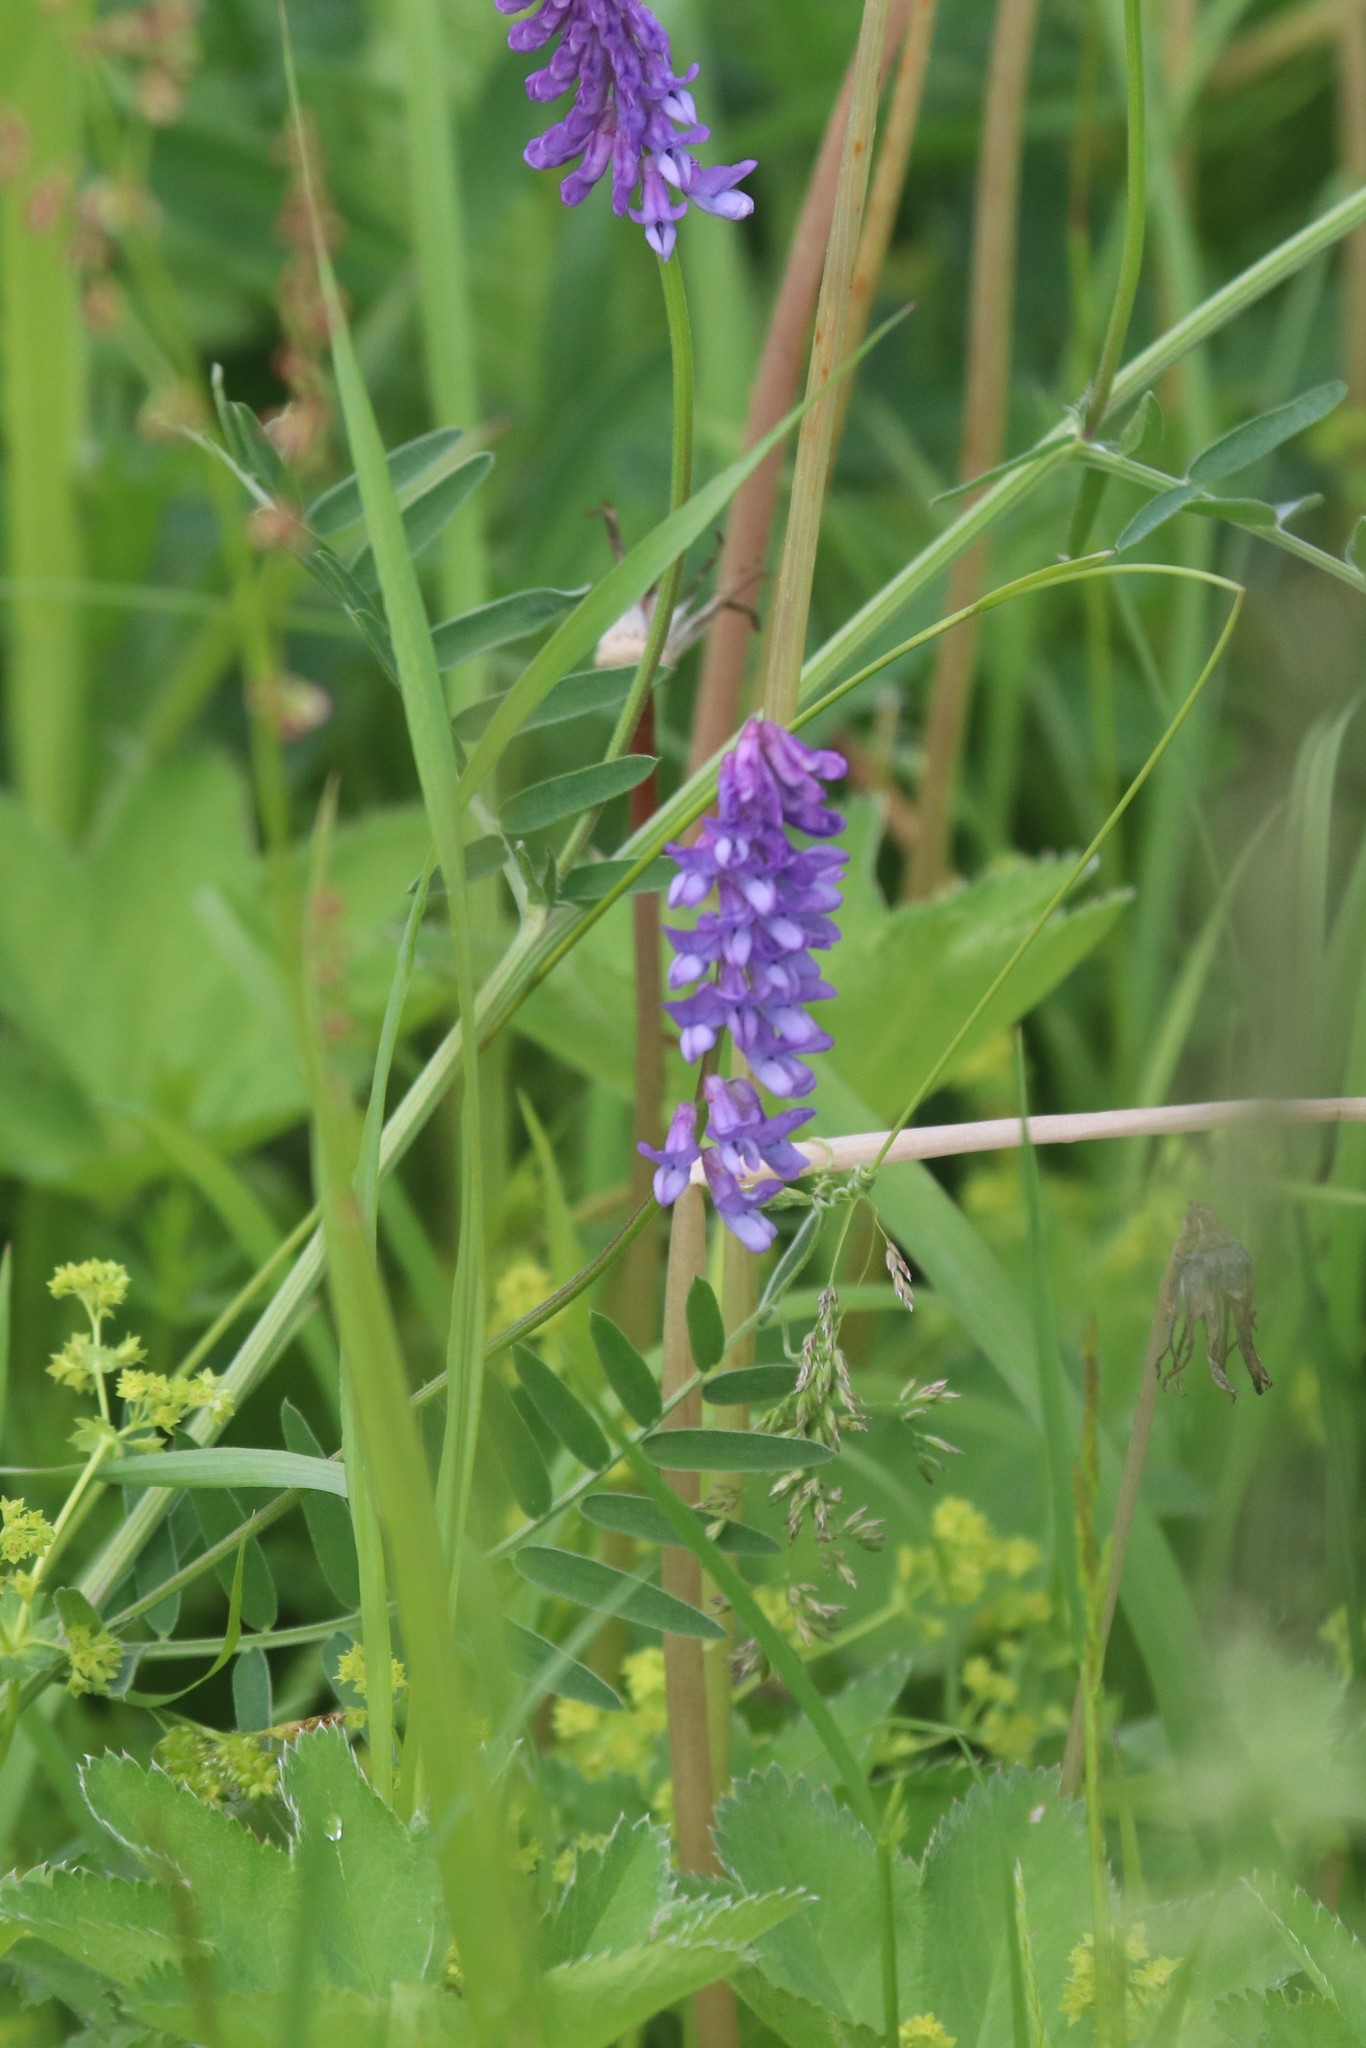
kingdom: Plantae
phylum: Tracheophyta
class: Magnoliopsida
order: Fabales
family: Fabaceae
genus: Vicia
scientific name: Vicia cracca
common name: Bird vetch
